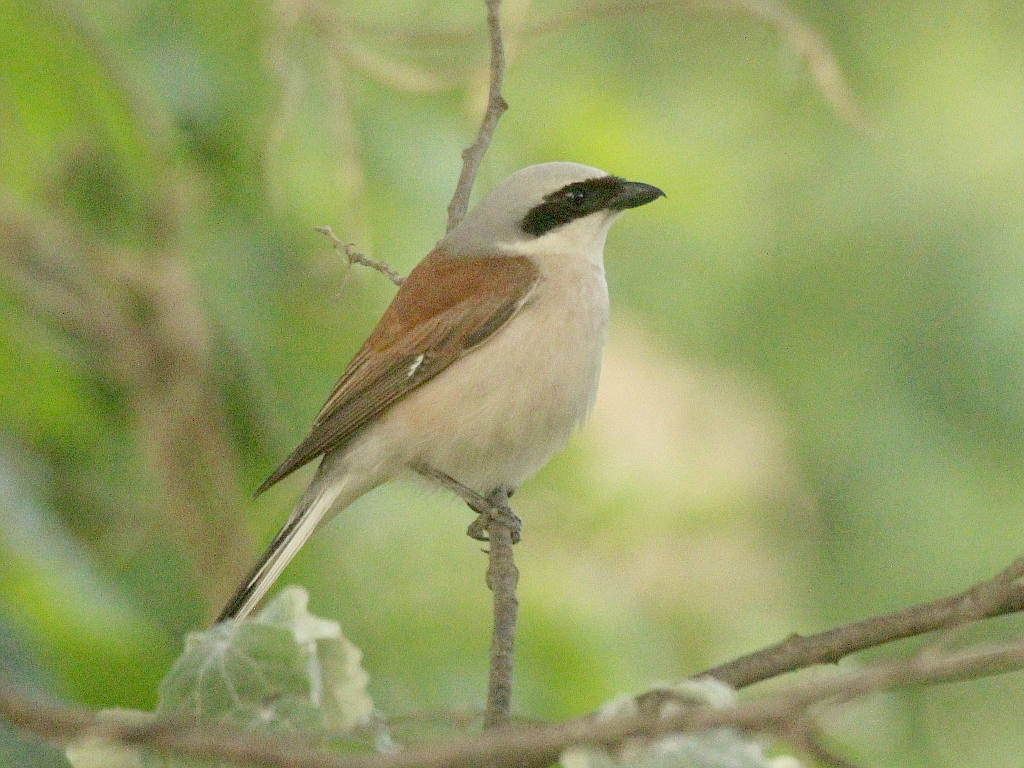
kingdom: Animalia
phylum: Chordata
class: Aves
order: Passeriformes
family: Laniidae
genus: Lanius
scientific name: Lanius collurio
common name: Red-backed shrike
